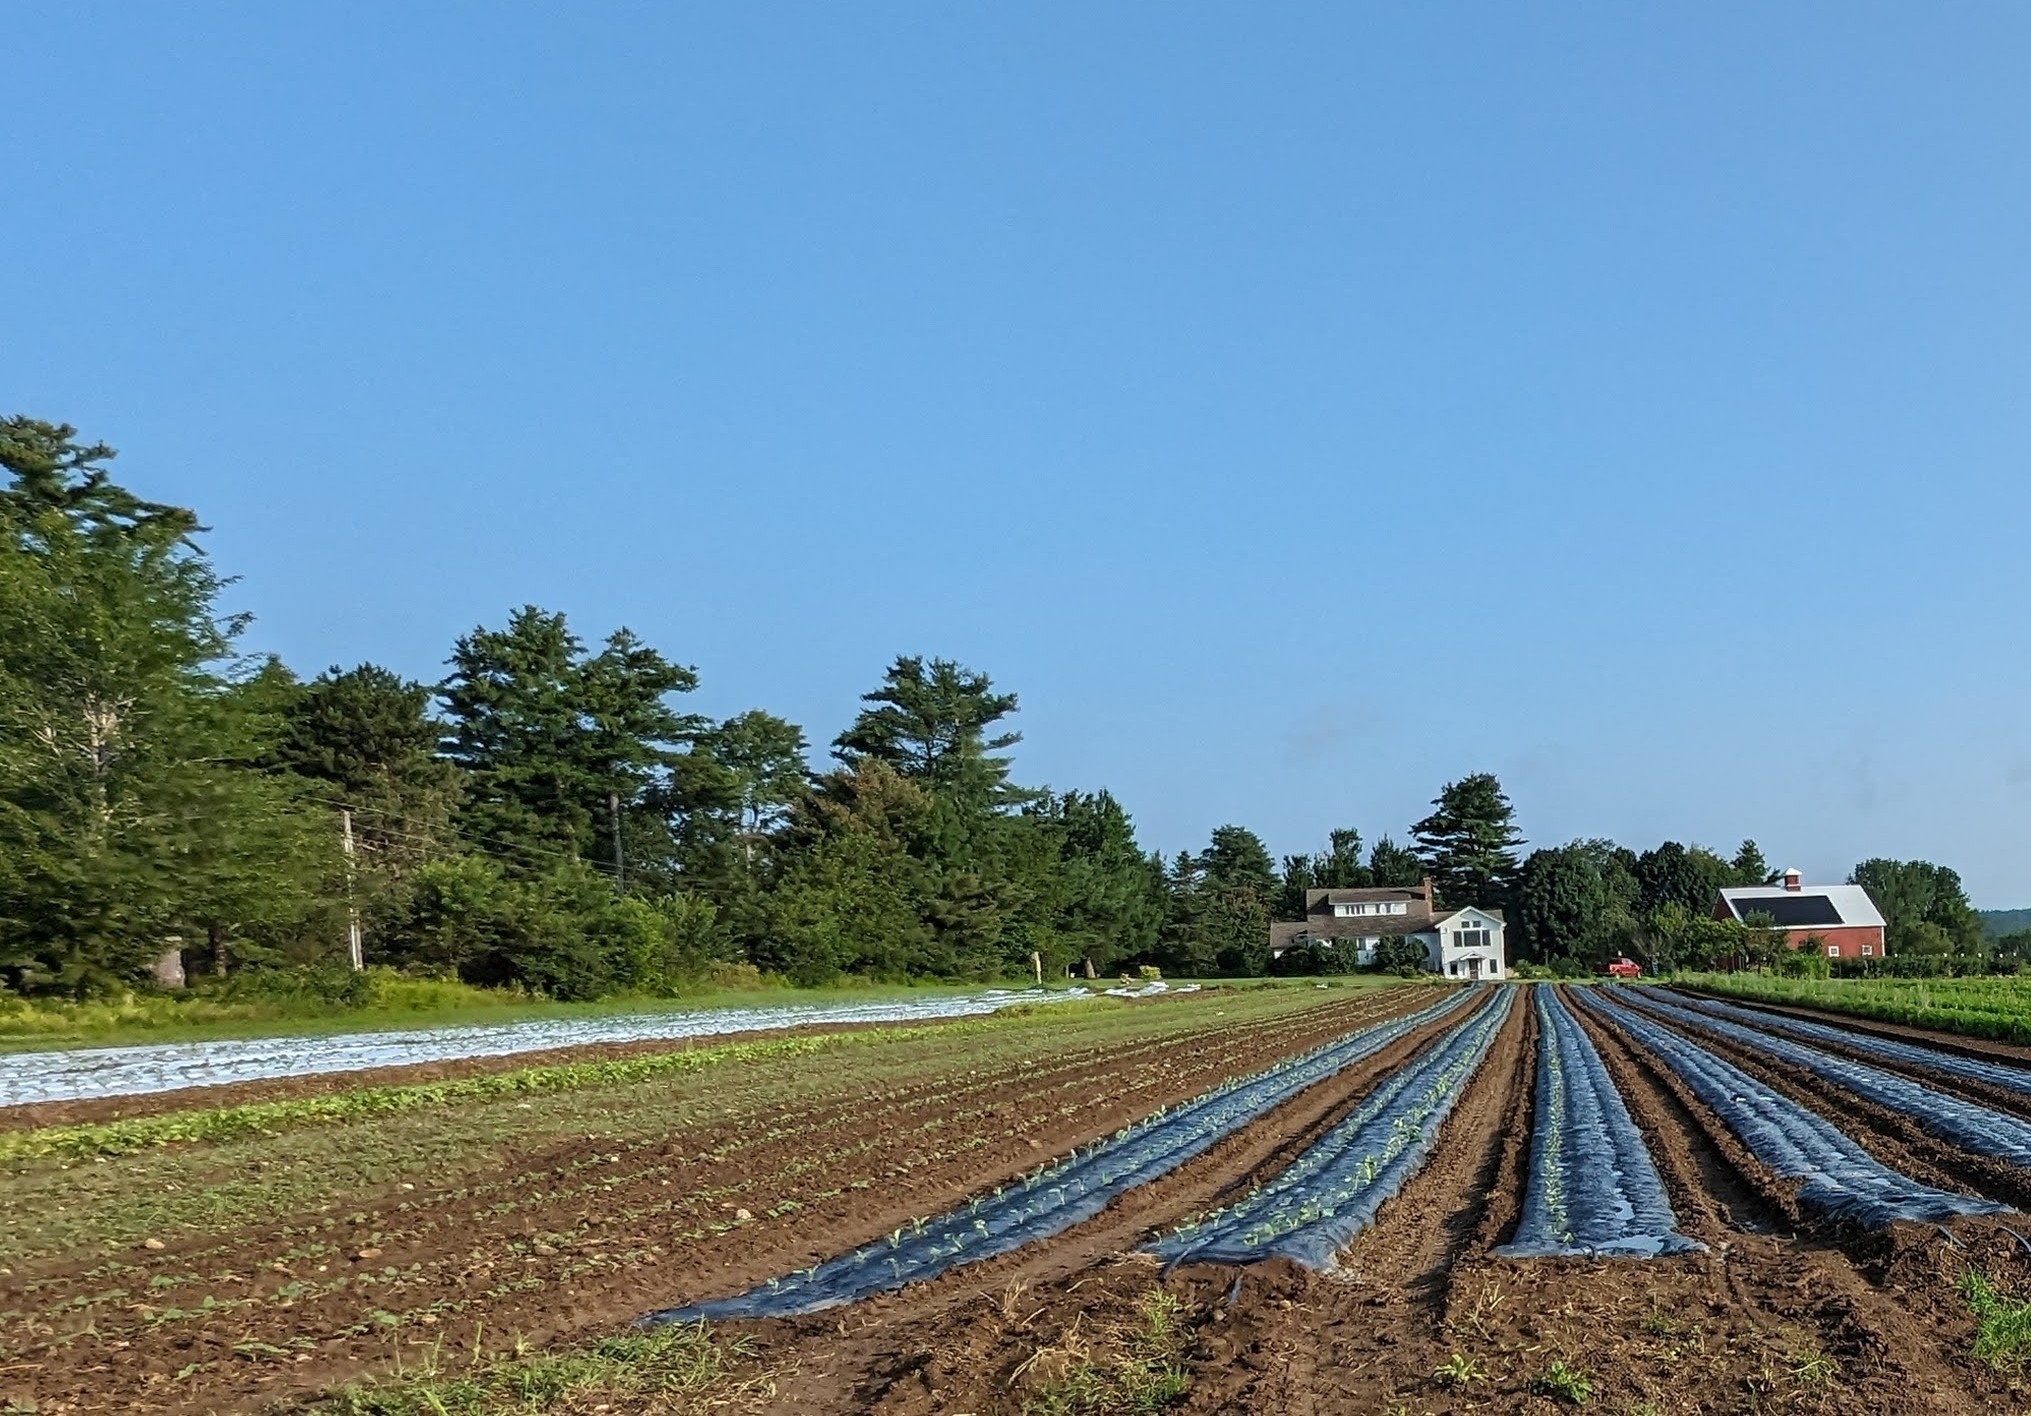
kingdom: Plantae
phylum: Tracheophyta
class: Pinopsida
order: Pinales
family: Pinaceae
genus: Pinus
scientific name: Pinus strobus
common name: Weymouth pine
